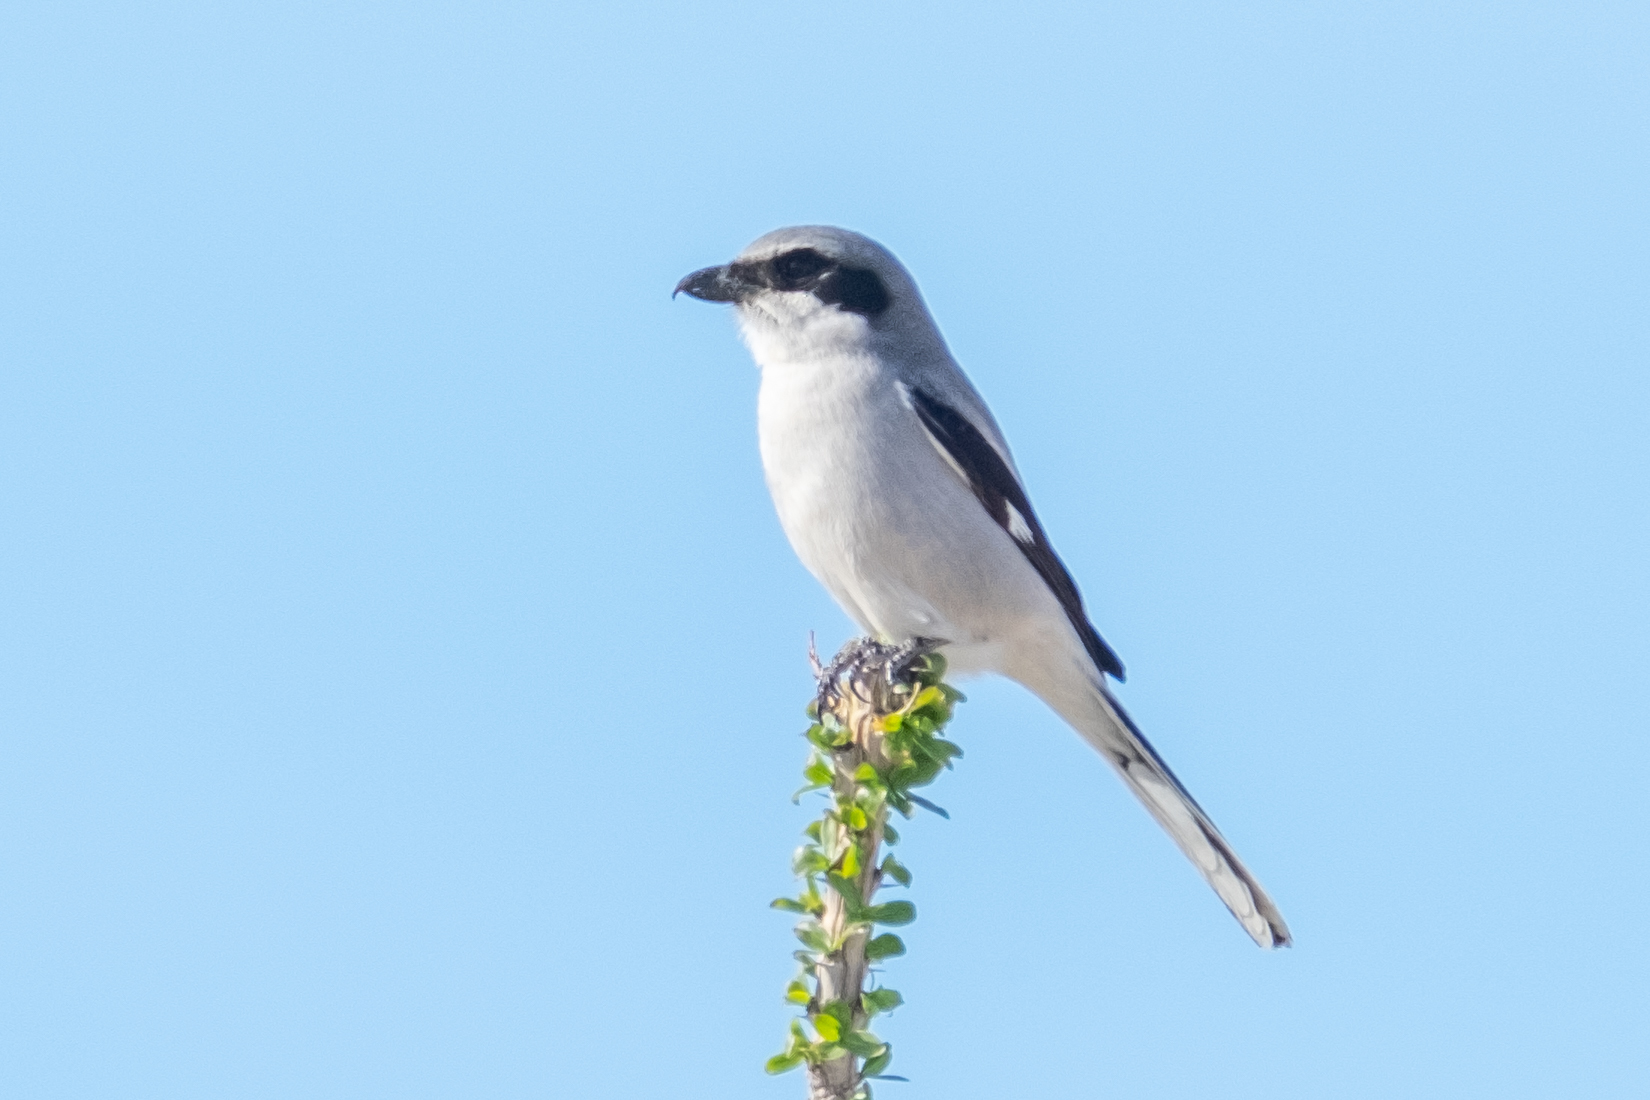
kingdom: Animalia
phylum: Chordata
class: Aves
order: Passeriformes
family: Laniidae
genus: Lanius
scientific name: Lanius ludovicianus
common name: Loggerhead shrike
